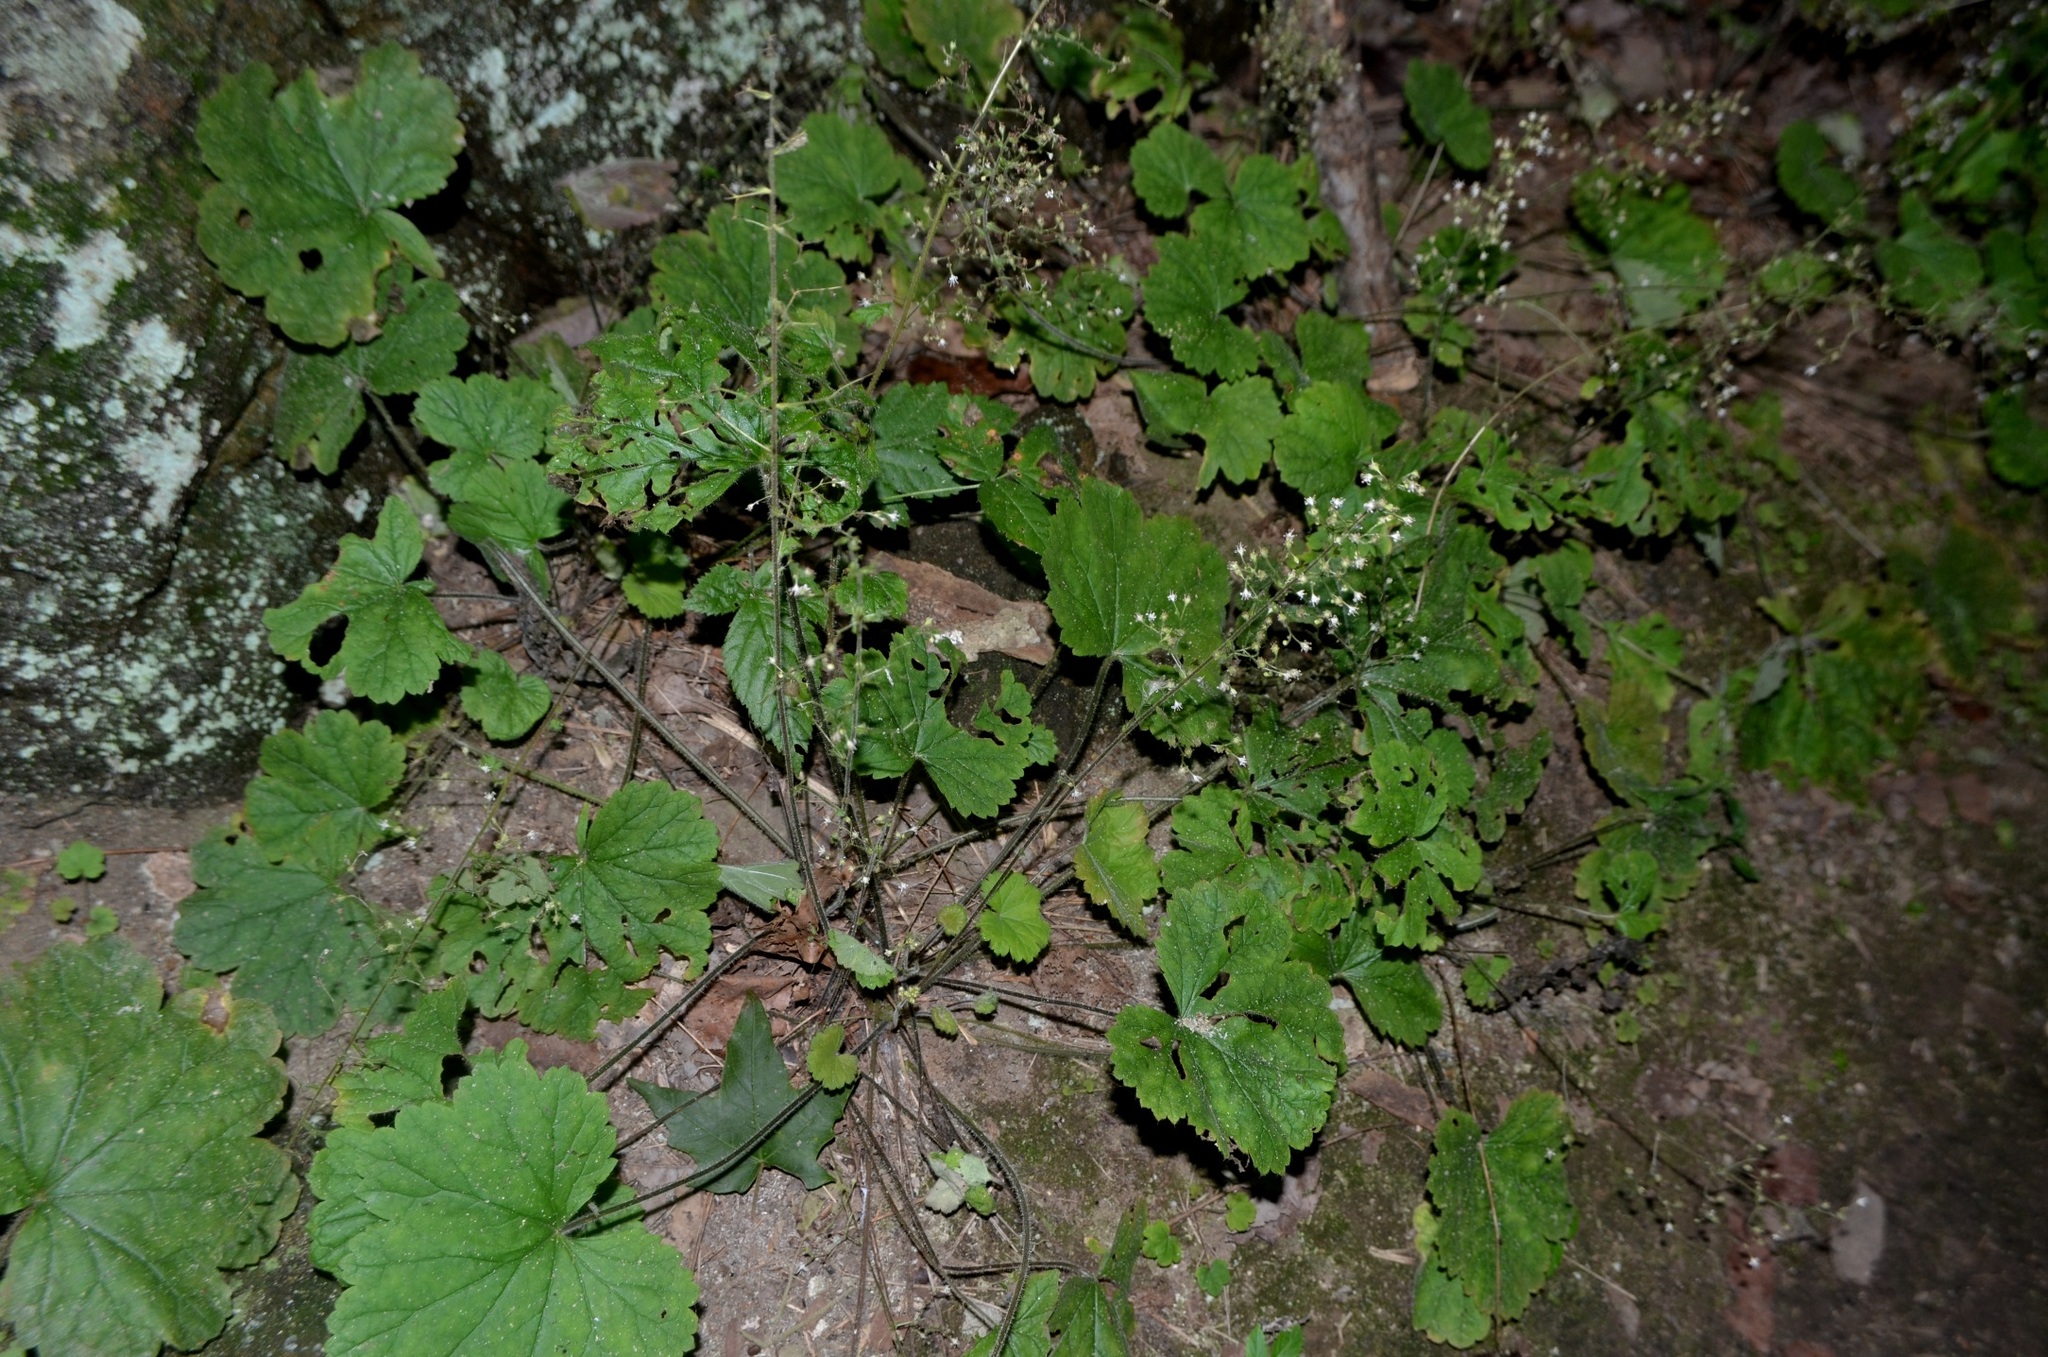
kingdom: Plantae
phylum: Tracheophyta
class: Magnoliopsida
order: Saxifragales
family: Saxifragaceae
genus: Heuchera
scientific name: Heuchera missouriensis
